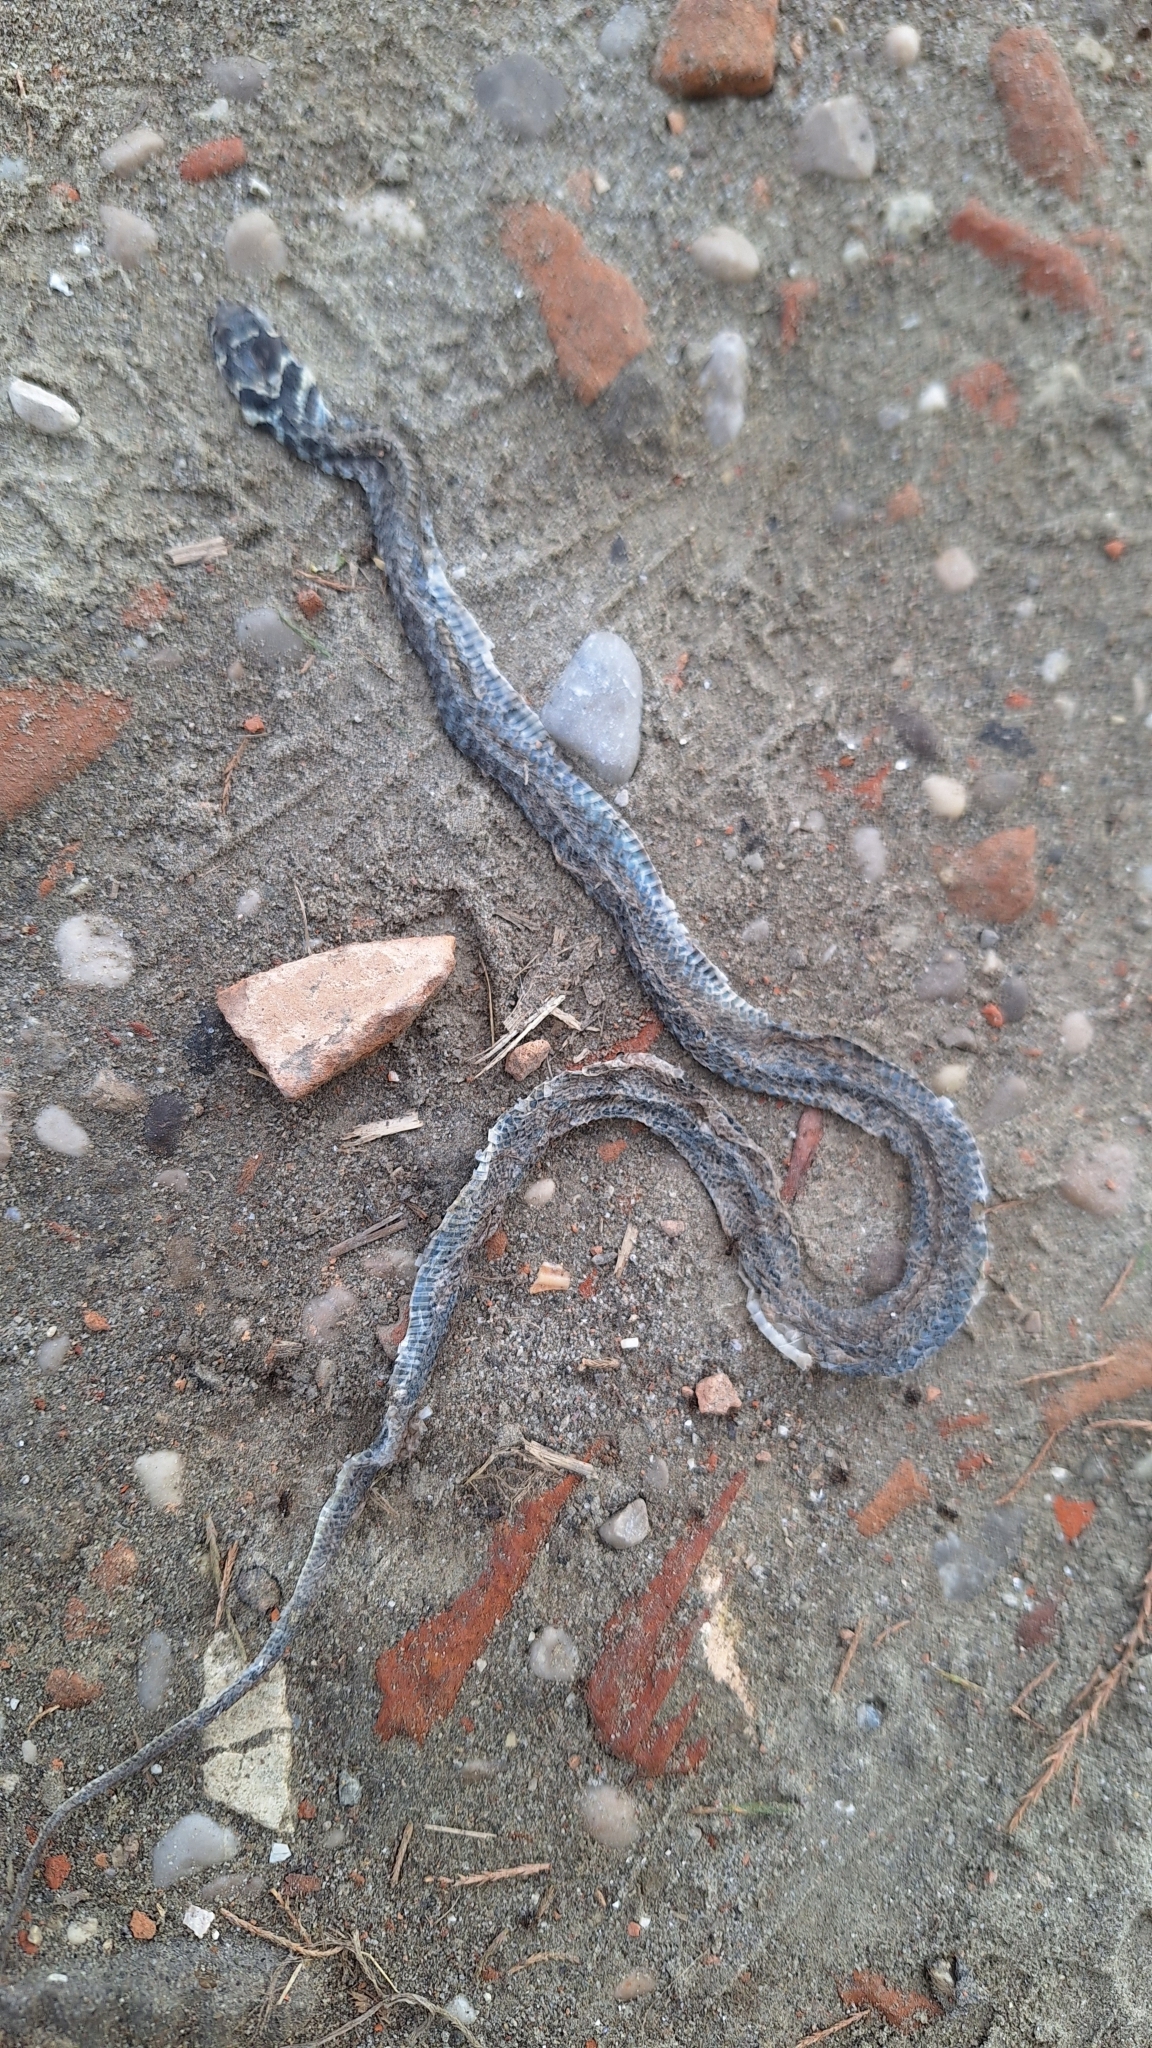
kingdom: Animalia
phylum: Chordata
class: Squamata
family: Colubridae
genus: Hierophis
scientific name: Hierophis viridiflavus
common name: Green whip snake
